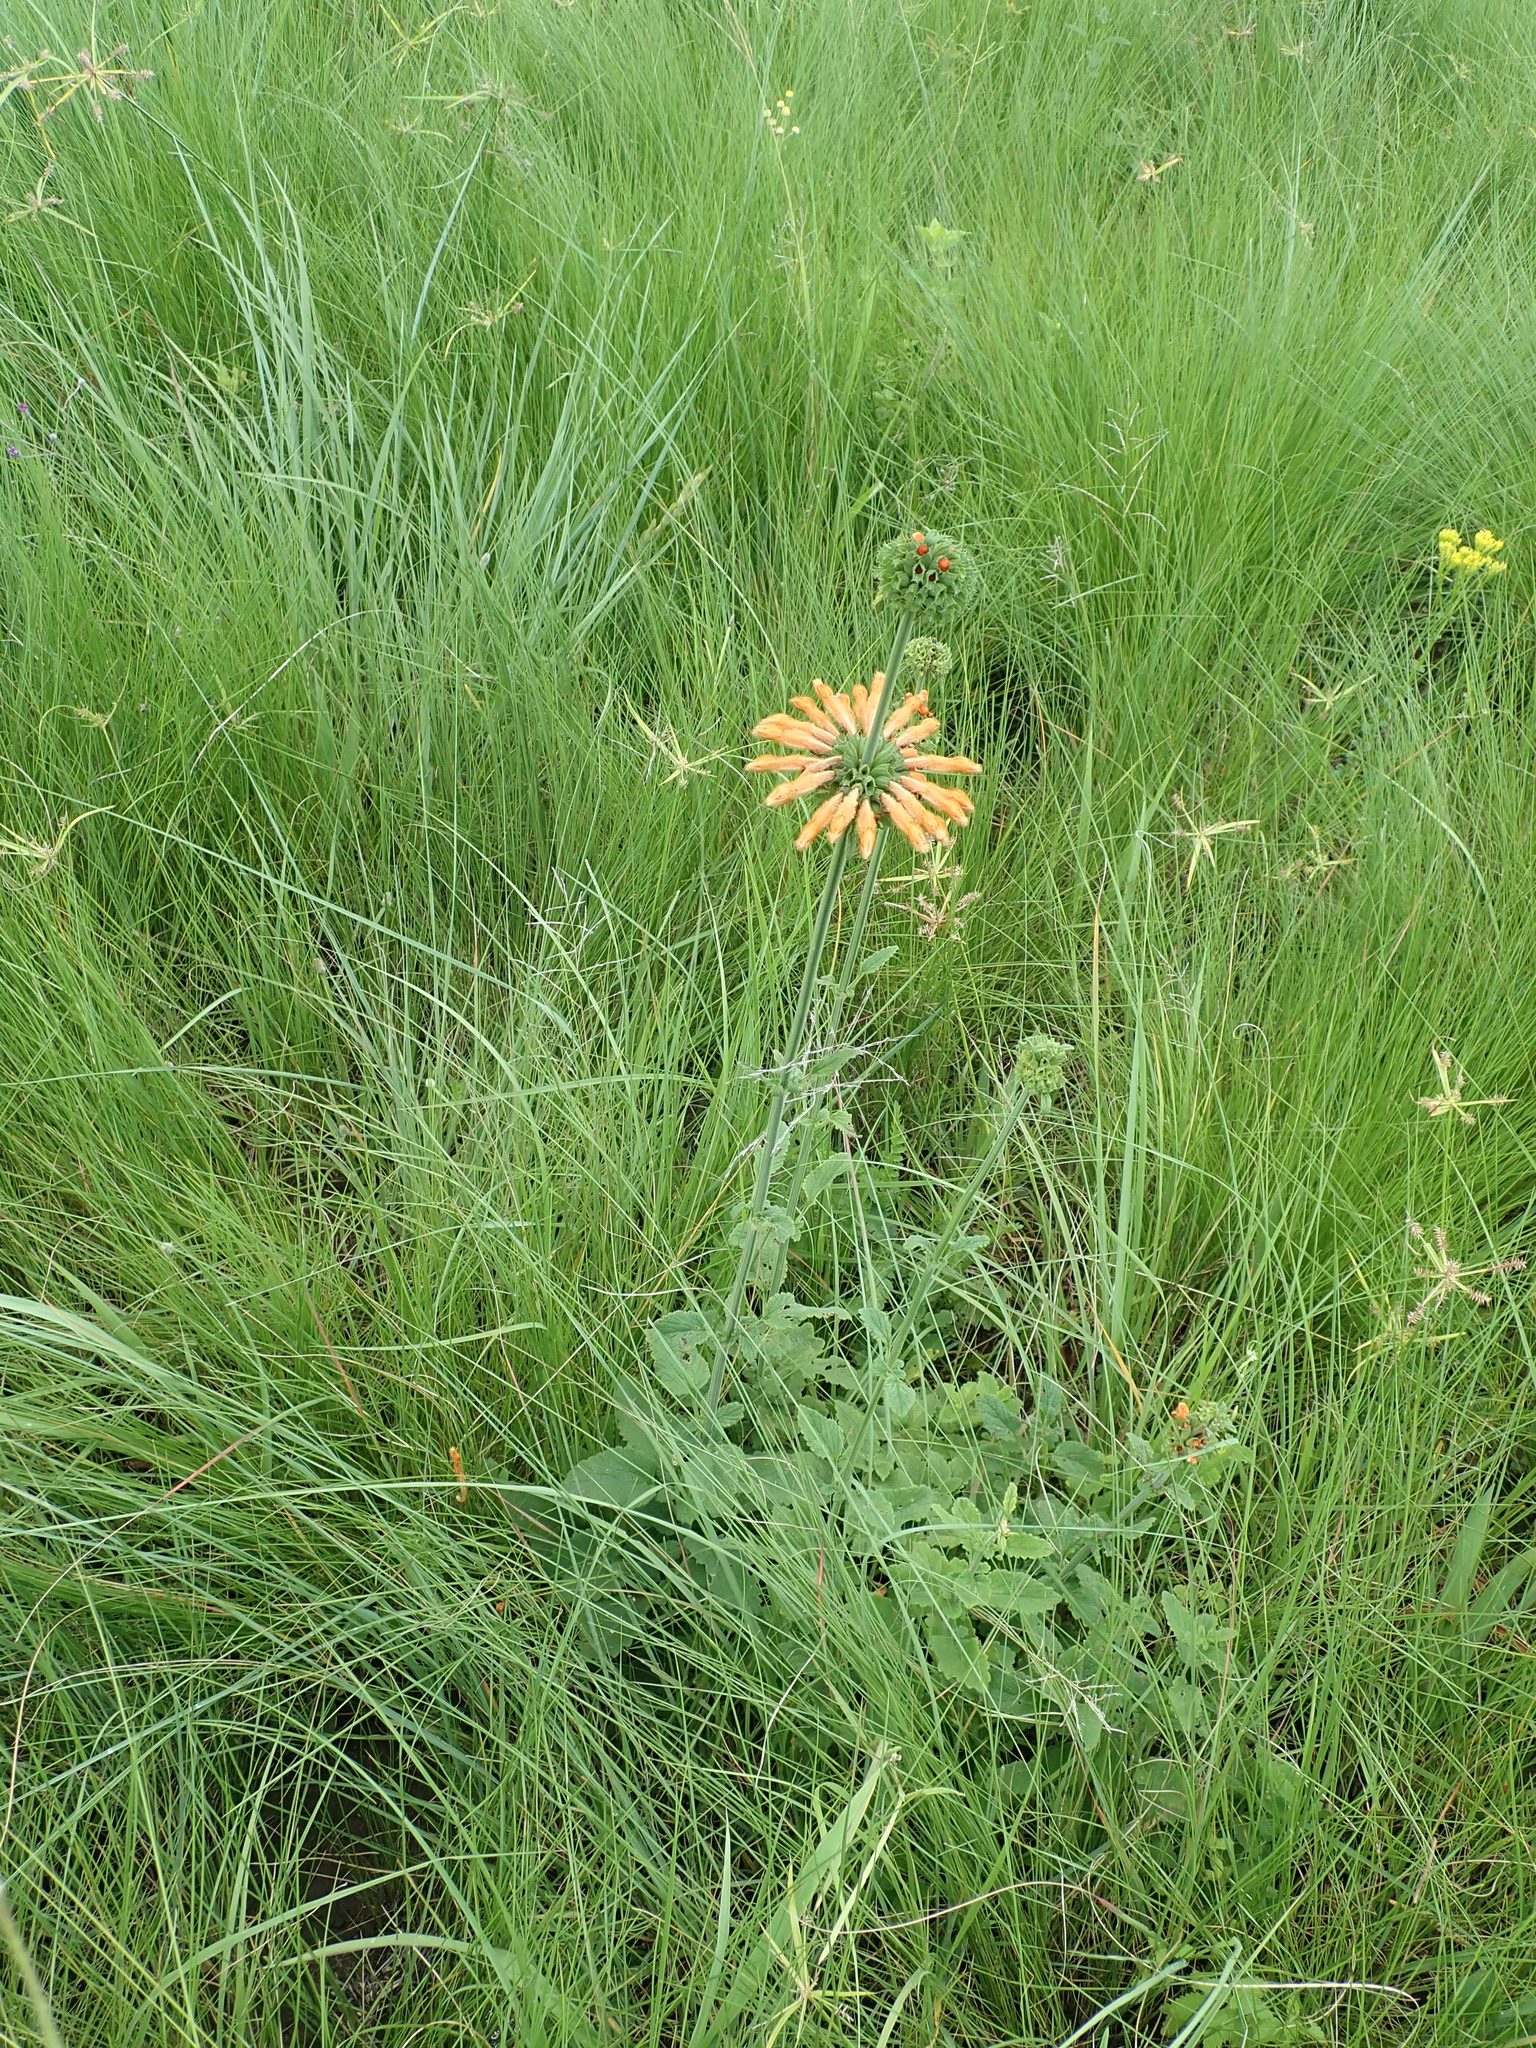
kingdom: Plantae
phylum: Tracheophyta
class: Magnoliopsida
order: Lamiales
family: Lamiaceae
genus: Leonotis
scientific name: Leonotis ocymifolia
